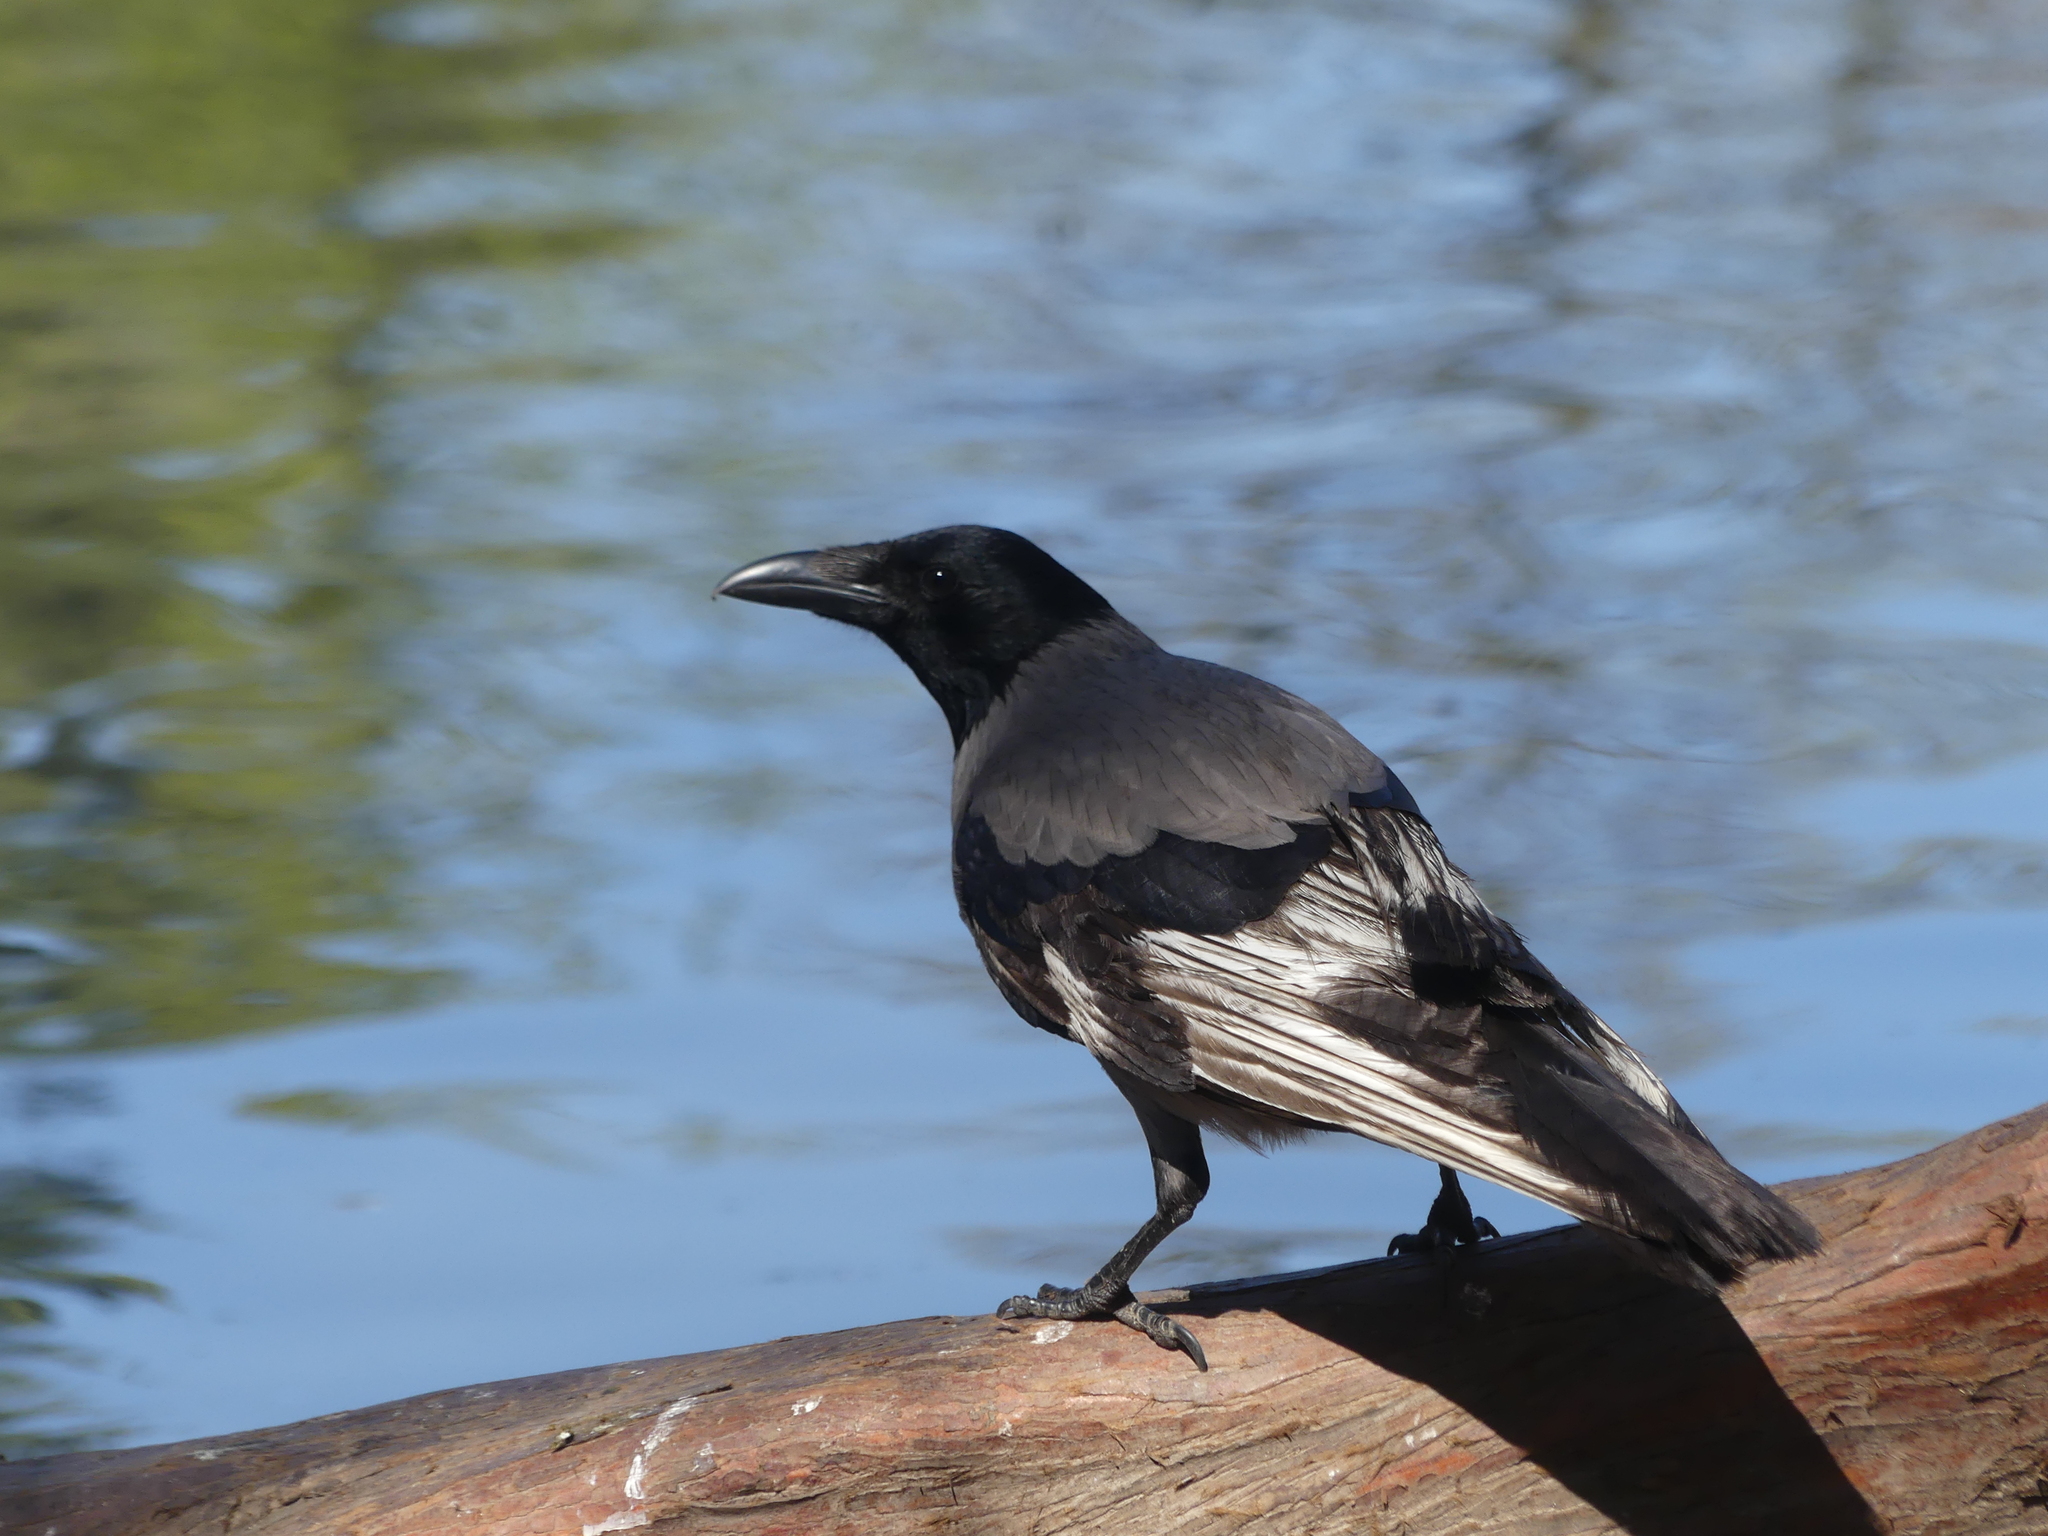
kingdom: Animalia
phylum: Chordata
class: Aves
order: Passeriformes
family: Corvidae
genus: Corvus
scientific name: Corvus cornix
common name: Hooded crow
